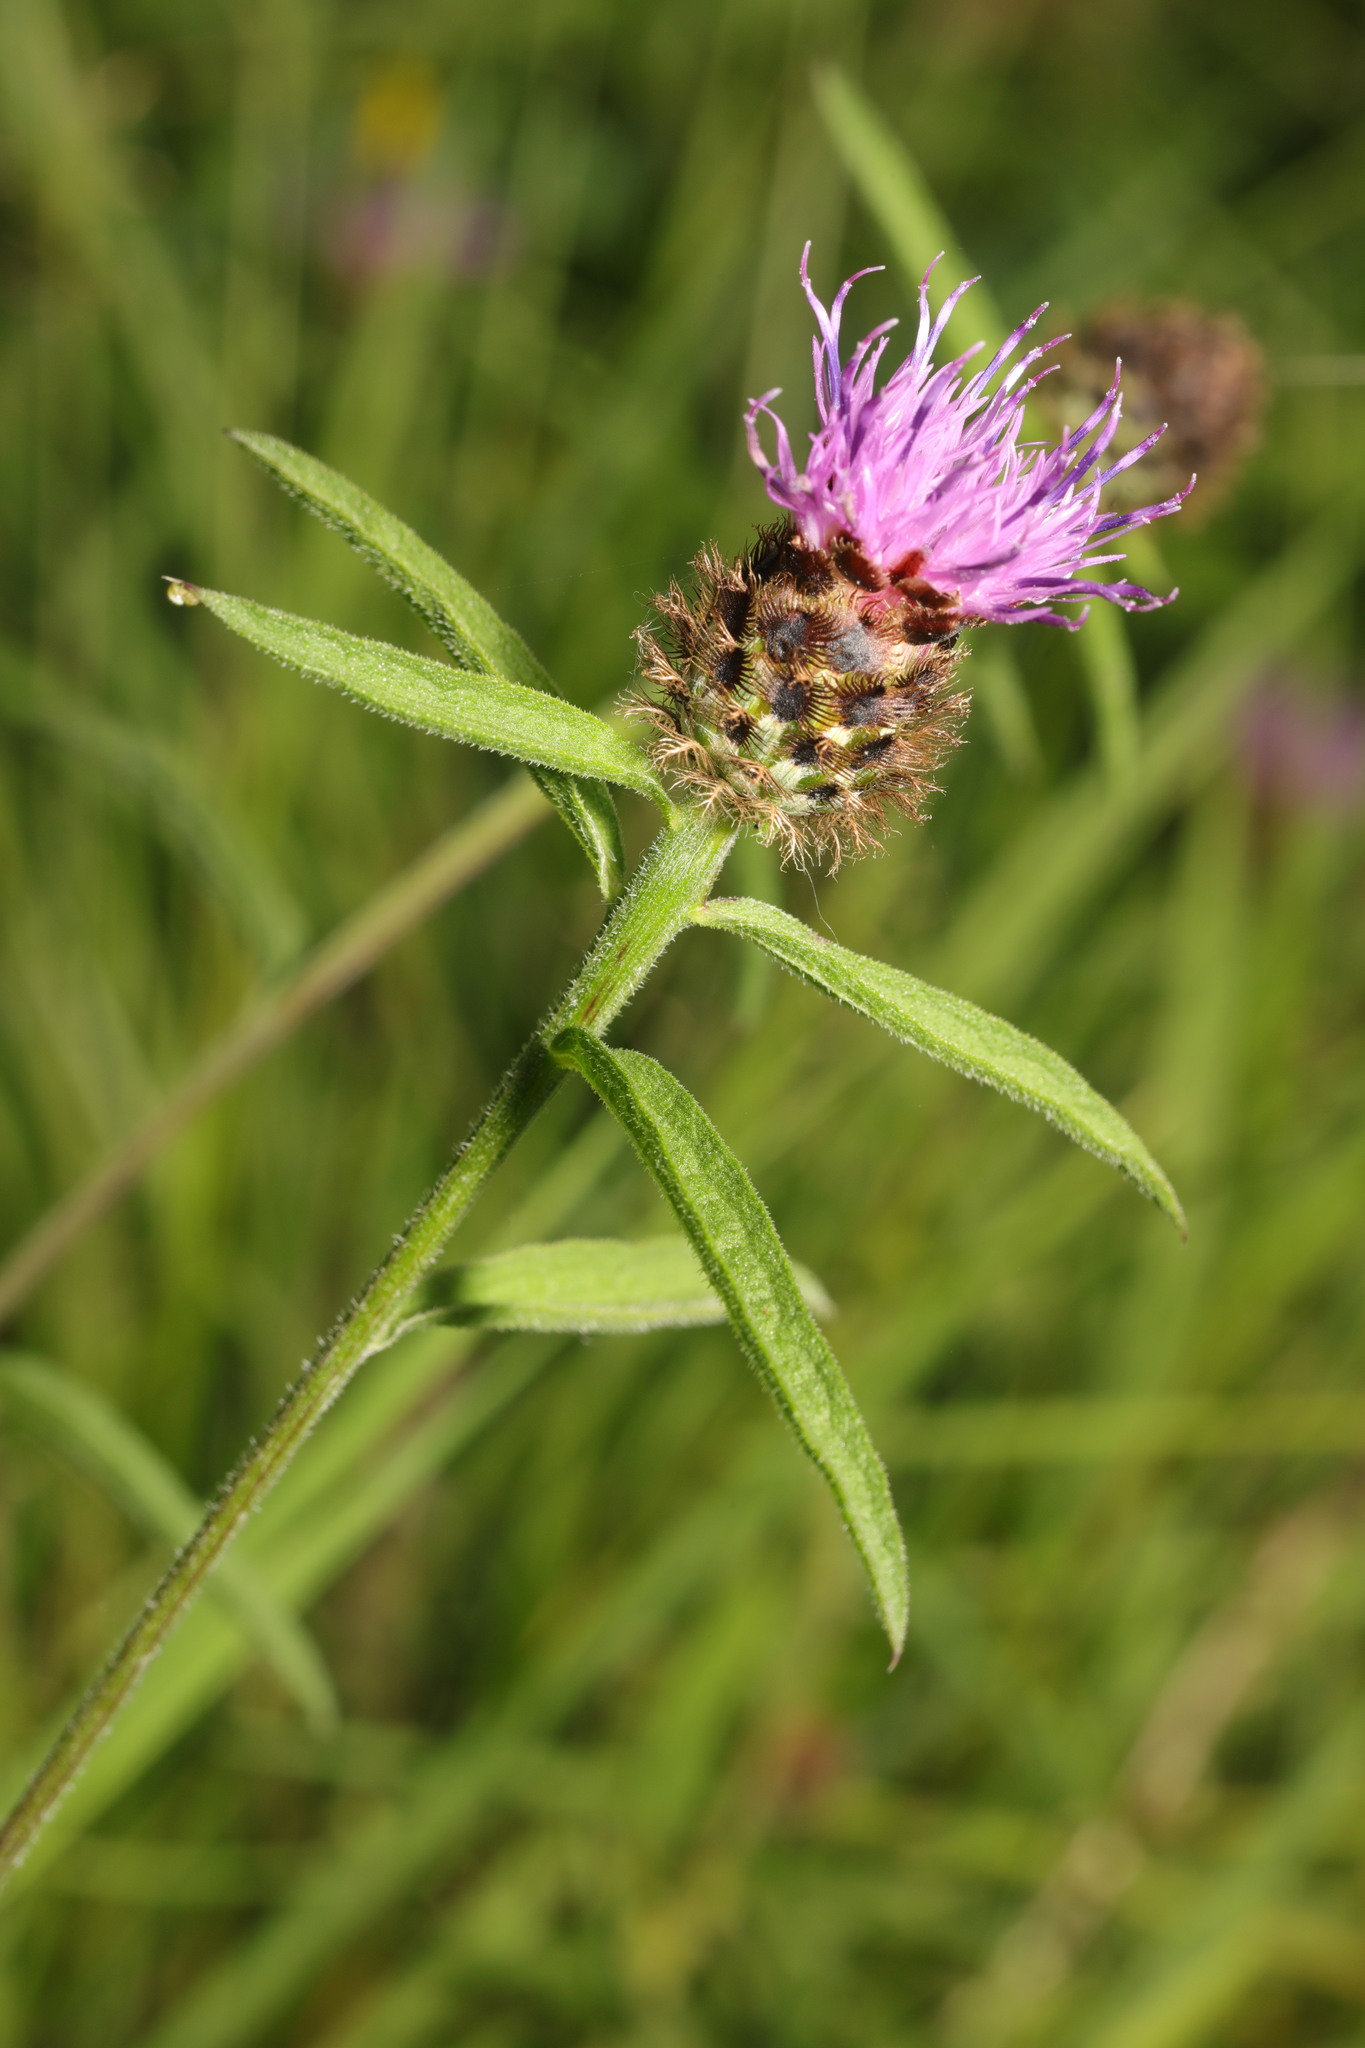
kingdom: Plantae
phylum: Tracheophyta
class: Magnoliopsida
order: Asterales
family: Asteraceae
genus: Centaurea
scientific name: Centaurea nigra
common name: Lesser knapweed
